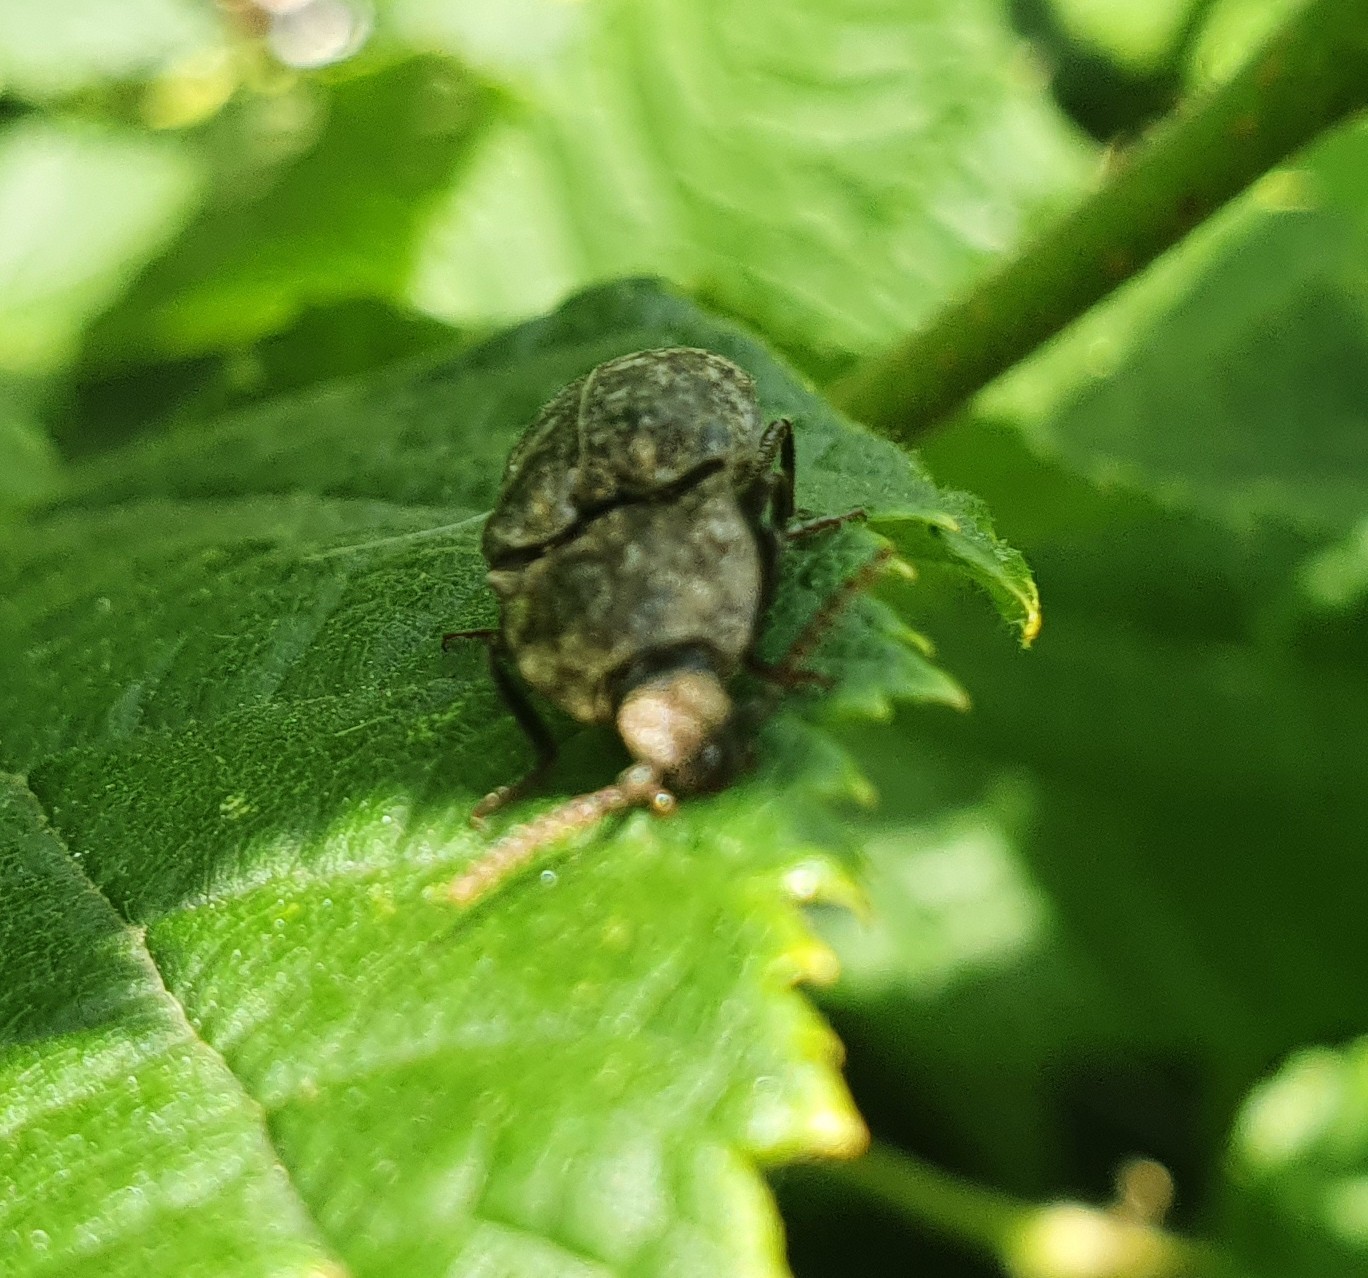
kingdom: Animalia
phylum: Arthropoda
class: Insecta
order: Coleoptera
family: Elateridae
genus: Agrypnus
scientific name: Agrypnus murinus
